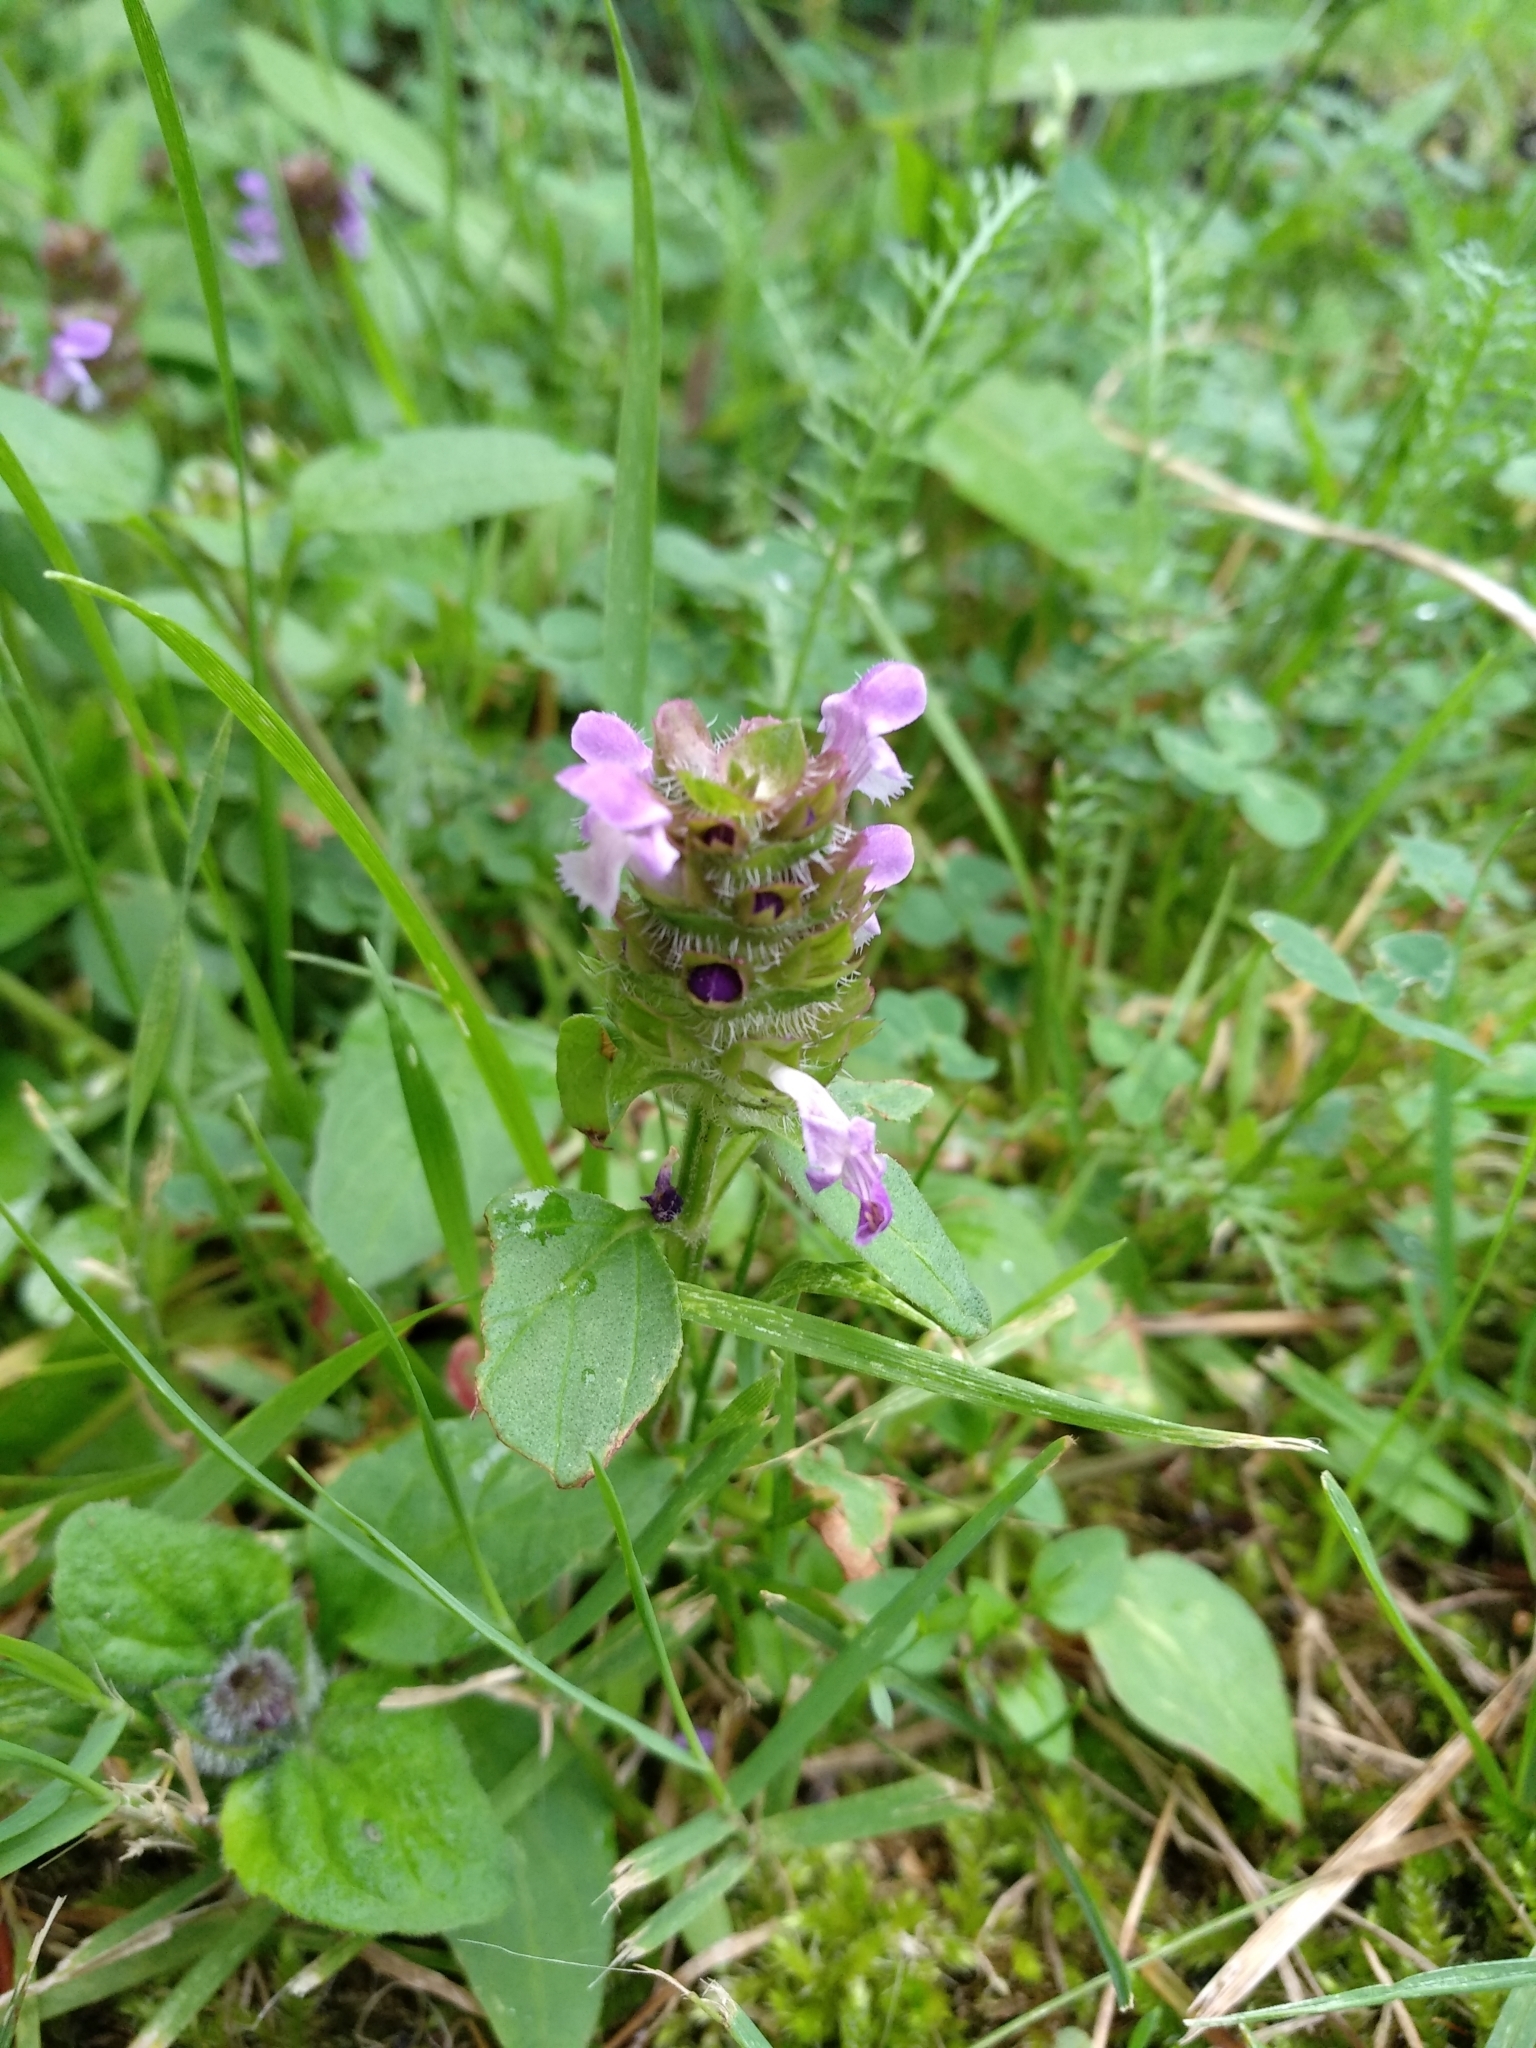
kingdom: Plantae
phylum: Tracheophyta
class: Magnoliopsida
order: Lamiales
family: Lamiaceae
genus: Prunella
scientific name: Prunella vulgaris
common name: Heal-all
